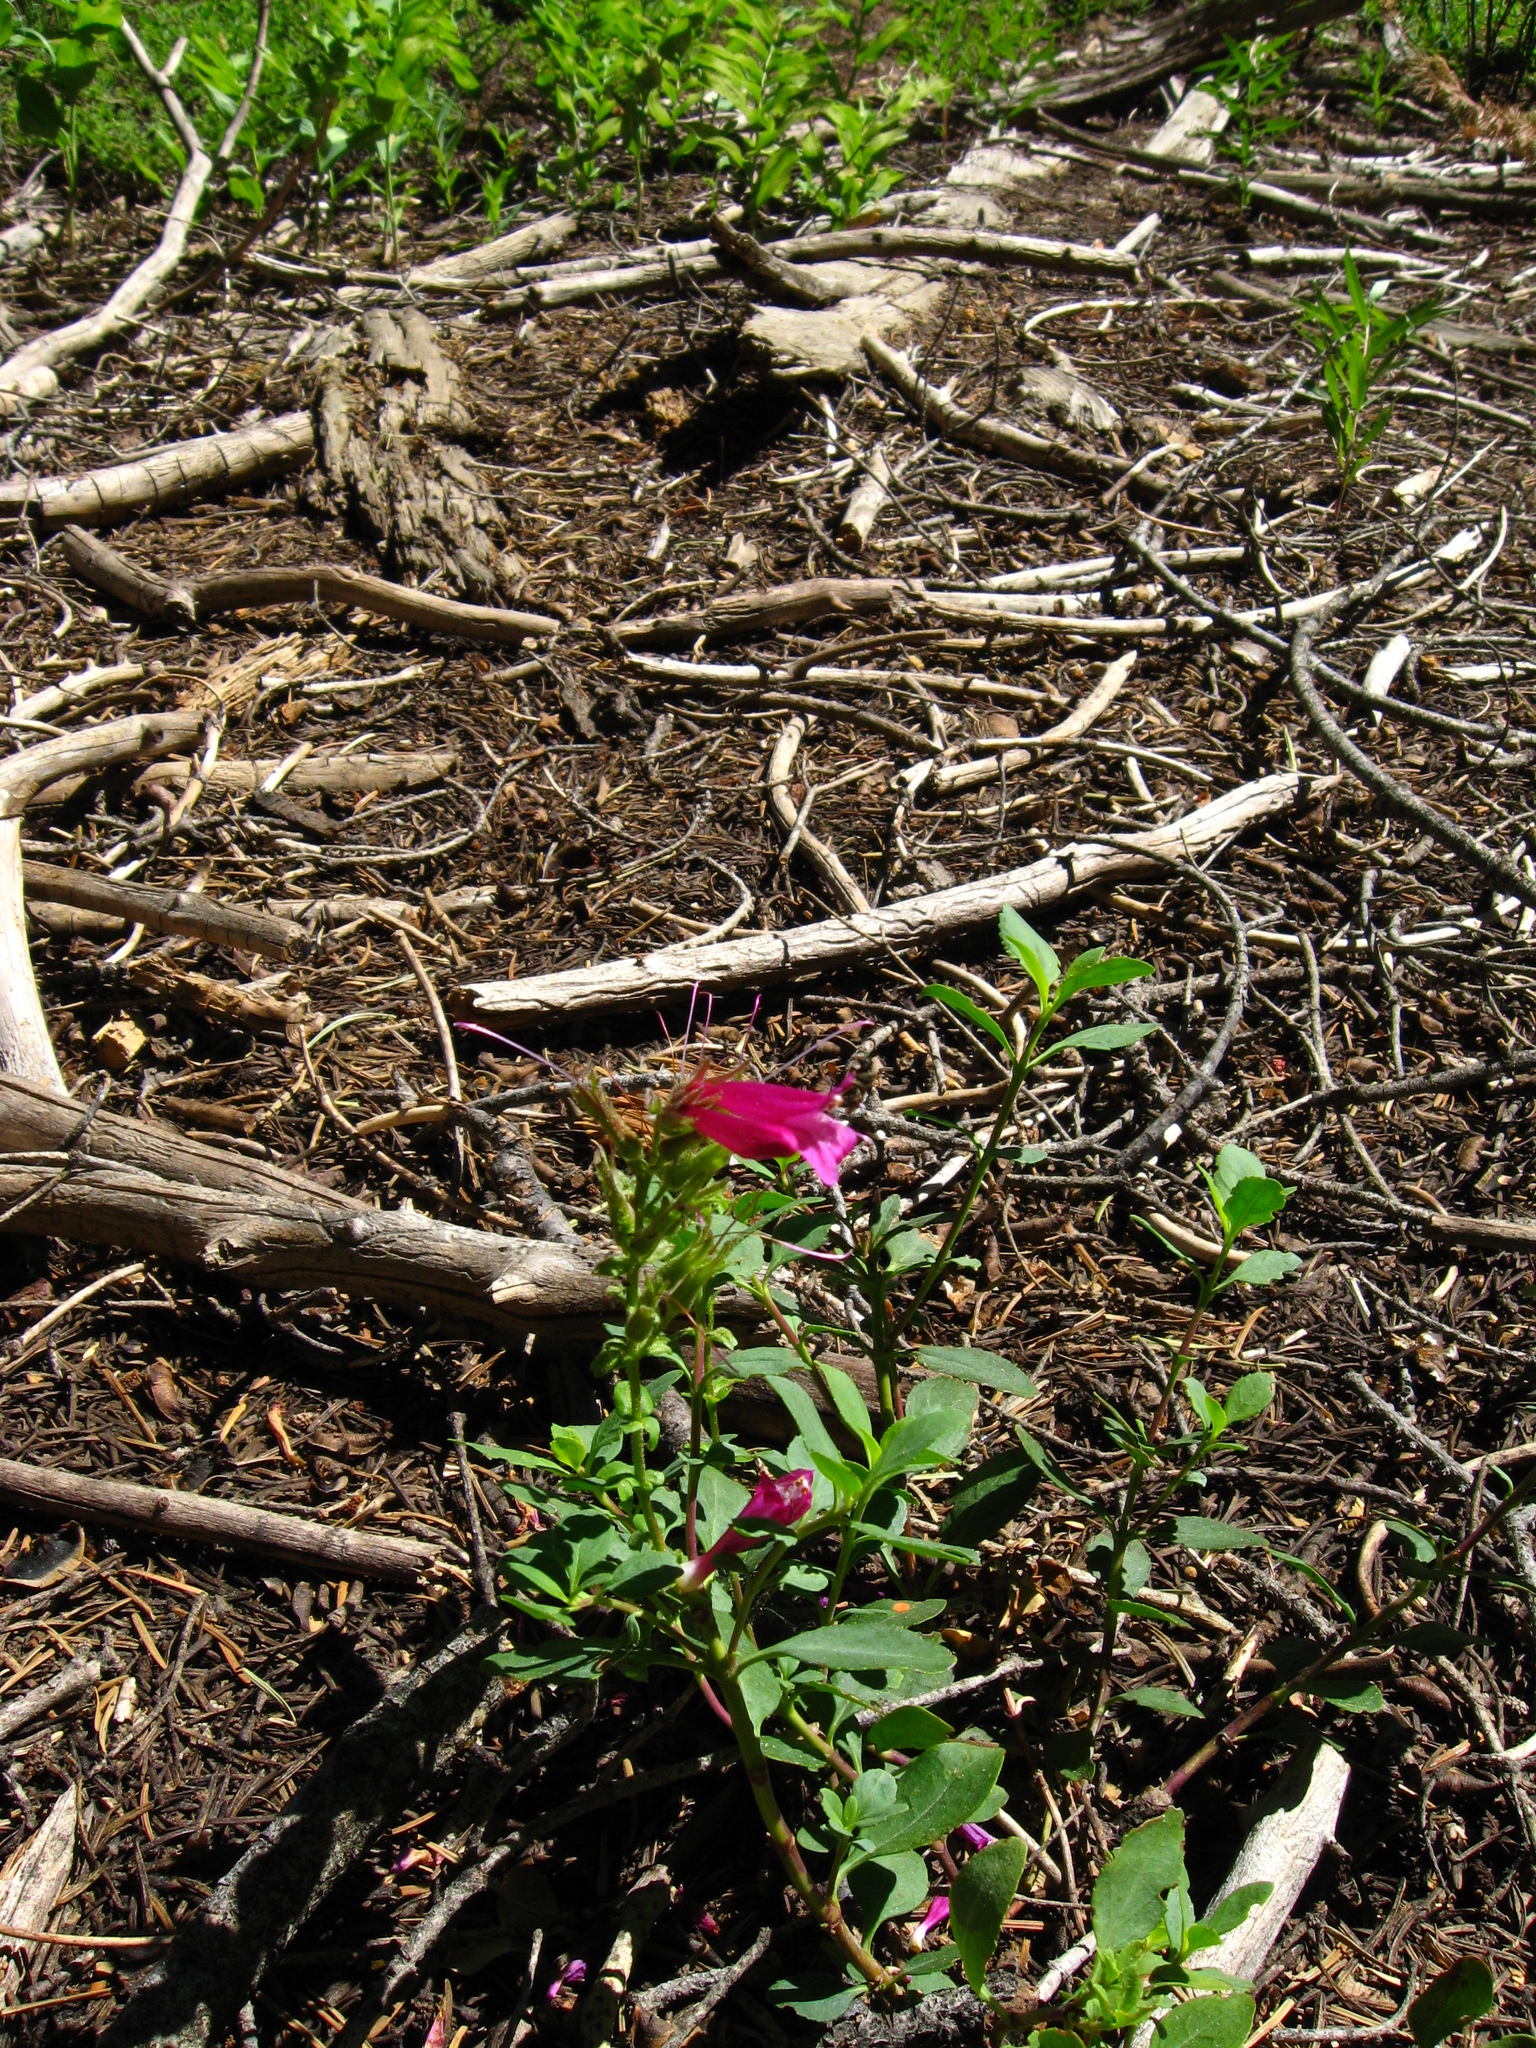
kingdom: Plantae
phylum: Tracheophyta
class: Magnoliopsida
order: Lamiales
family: Plantaginaceae
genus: Penstemon
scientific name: Penstemon newberryi
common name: Mountain-pride
